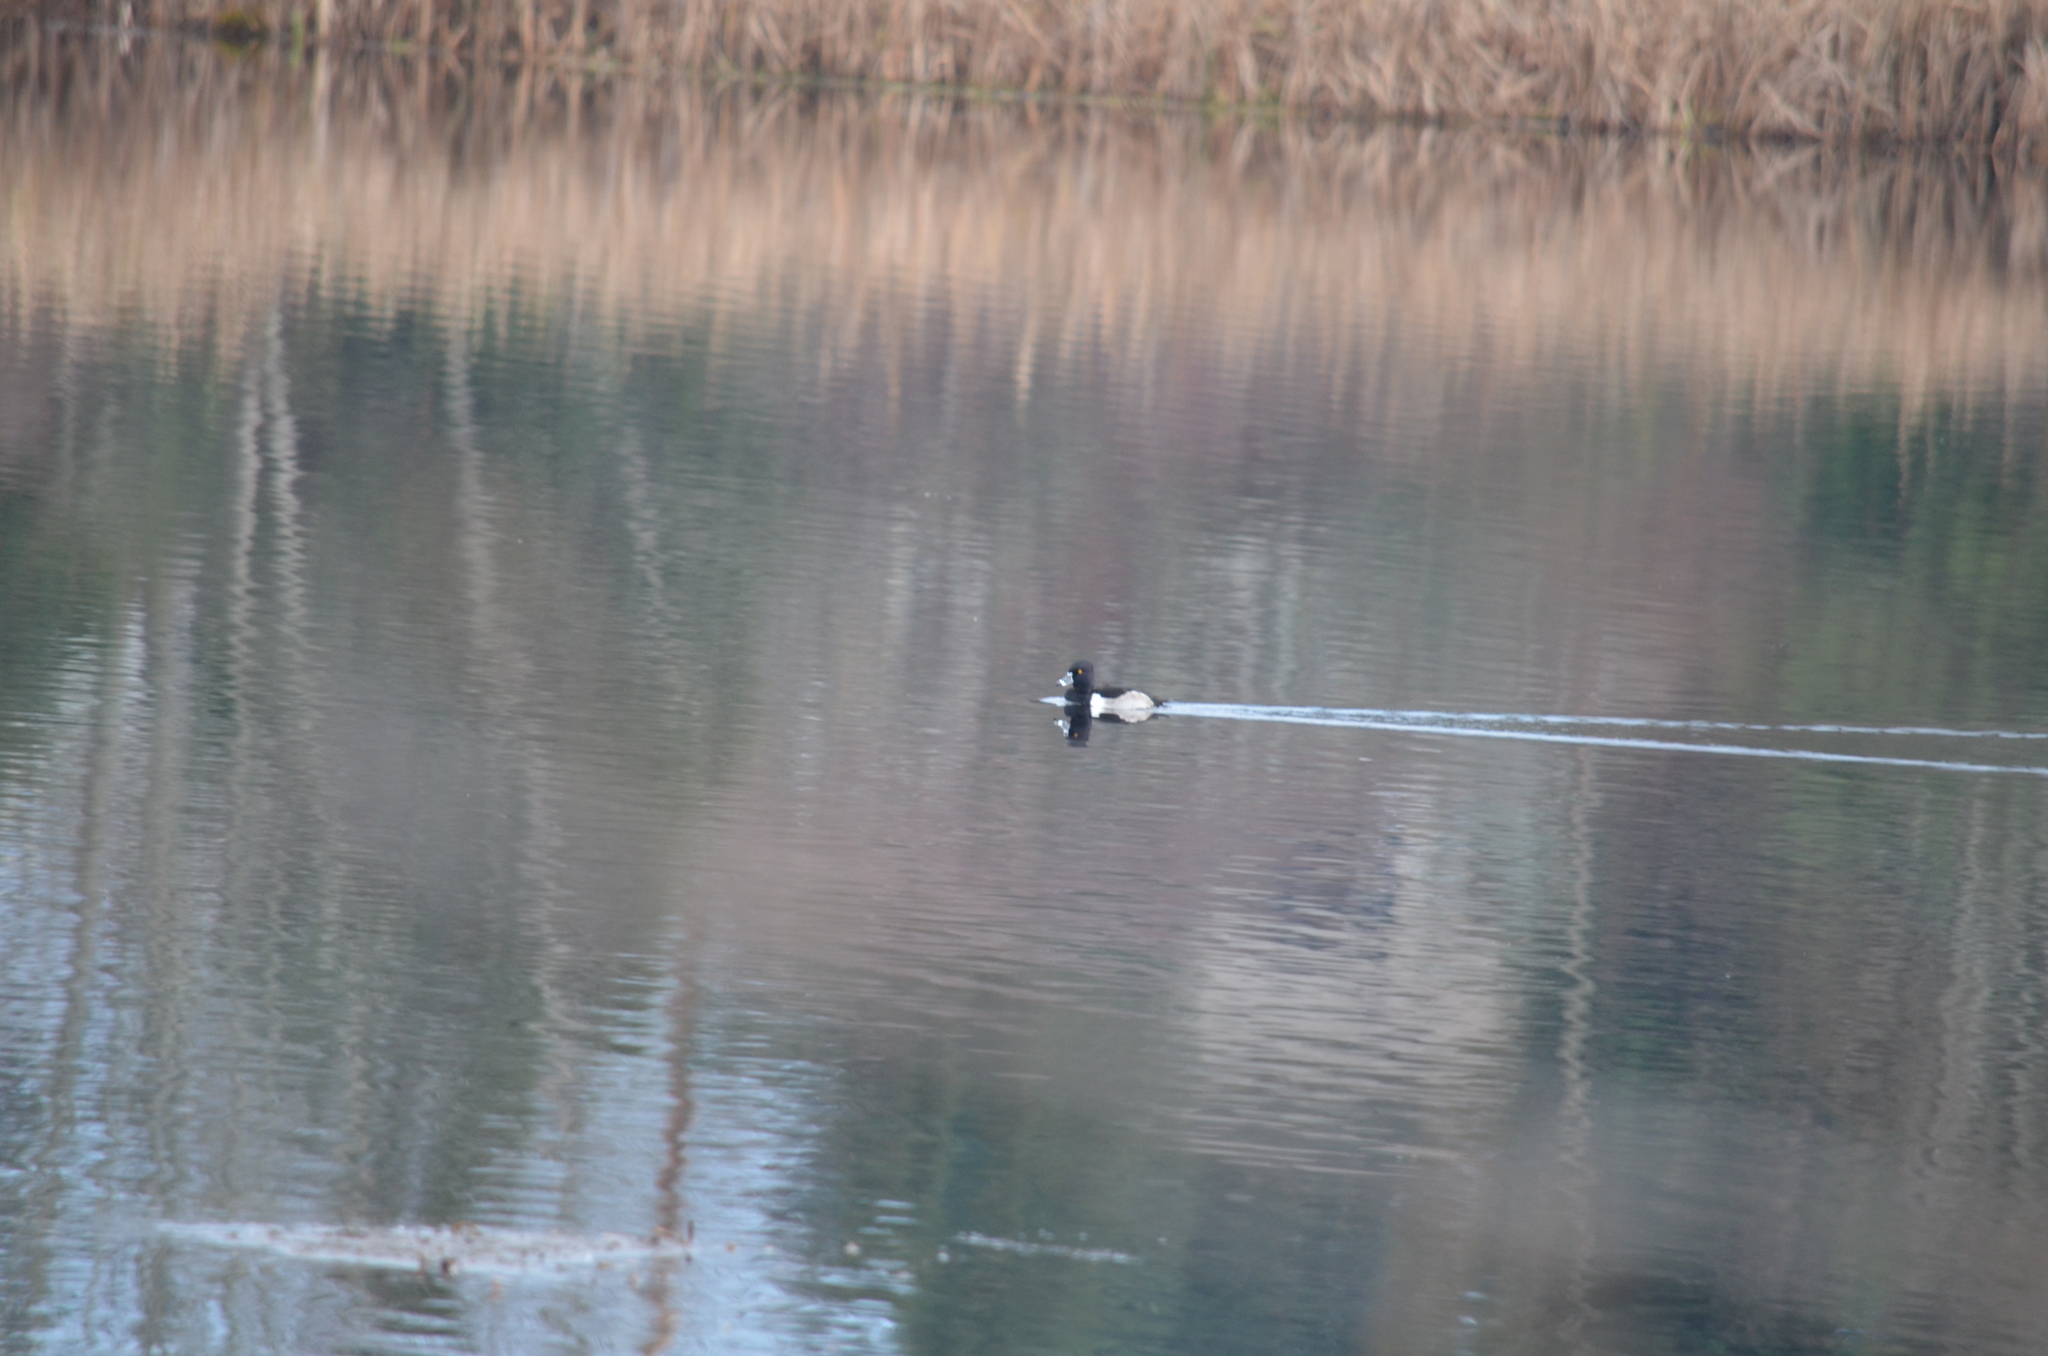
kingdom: Animalia
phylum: Chordata
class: Aves
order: Anseriformes
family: Anatidae
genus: Aythya
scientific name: Aythya collaris
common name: Ring-necked duck
